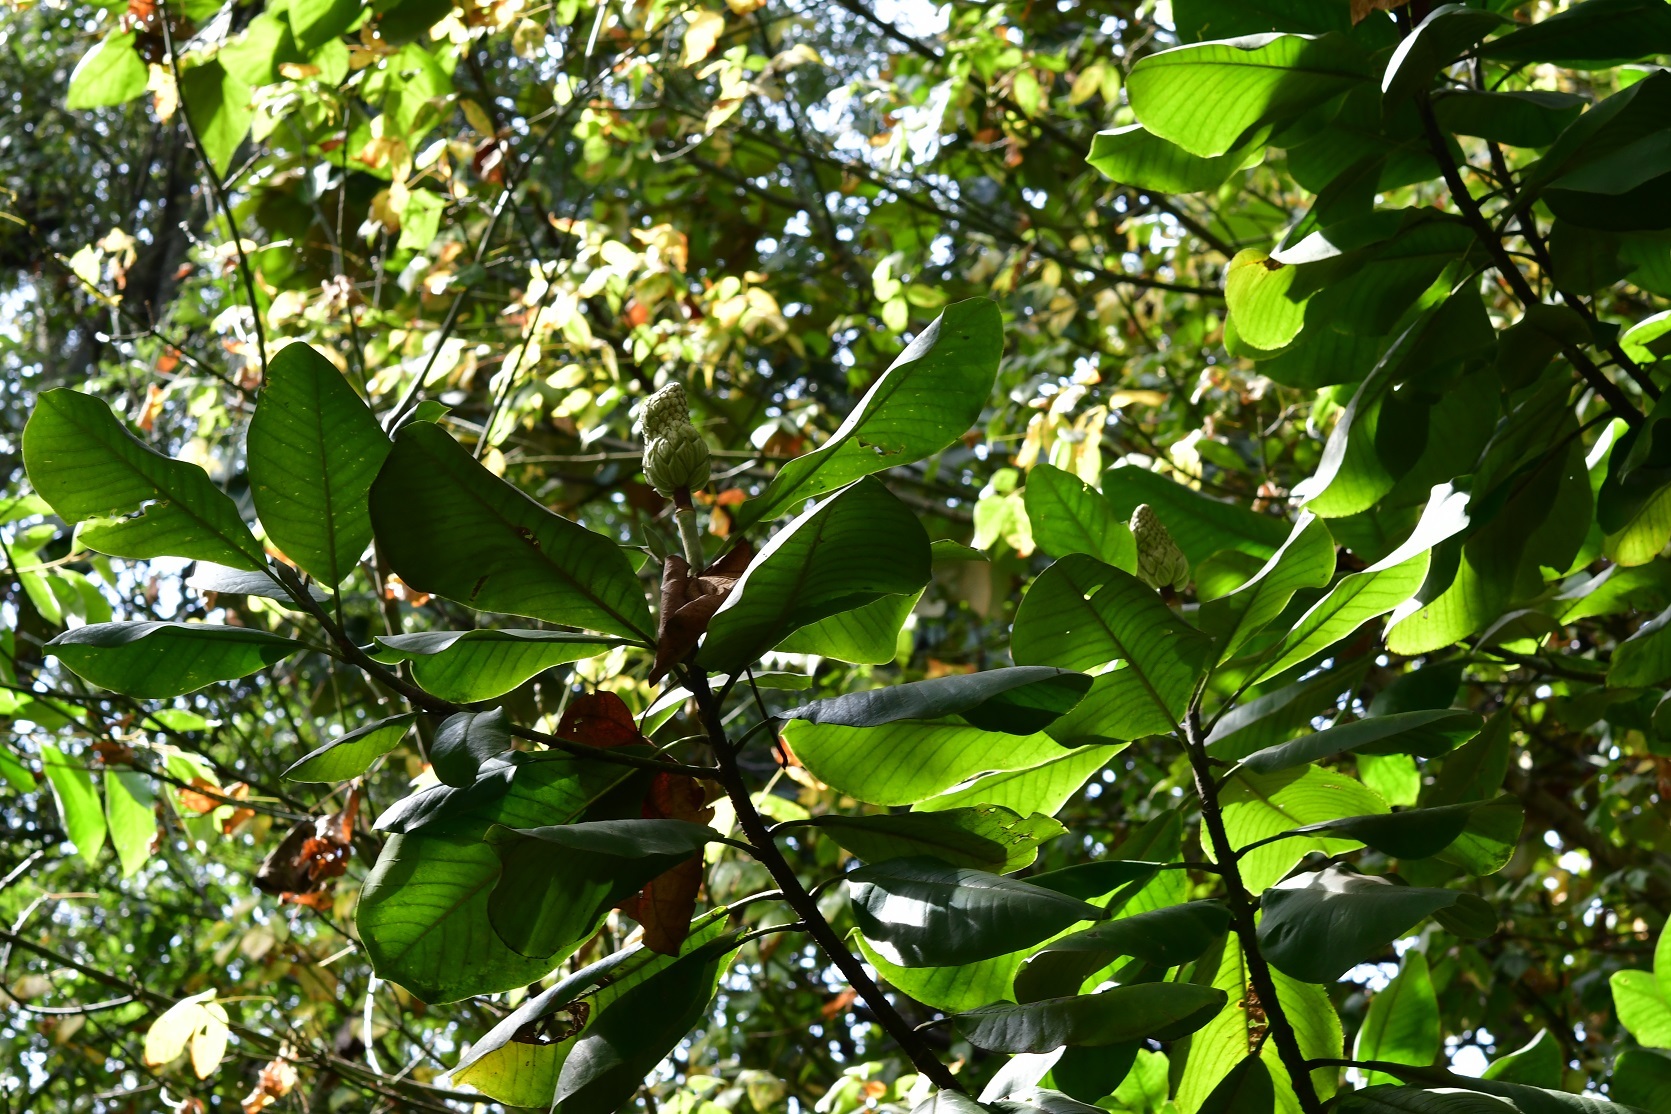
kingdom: Plantae
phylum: Tracheophyta
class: Magnoliopsida
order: Magnoliales
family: Magnoliaceae
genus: Magnolia
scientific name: Magnolia sharpii
